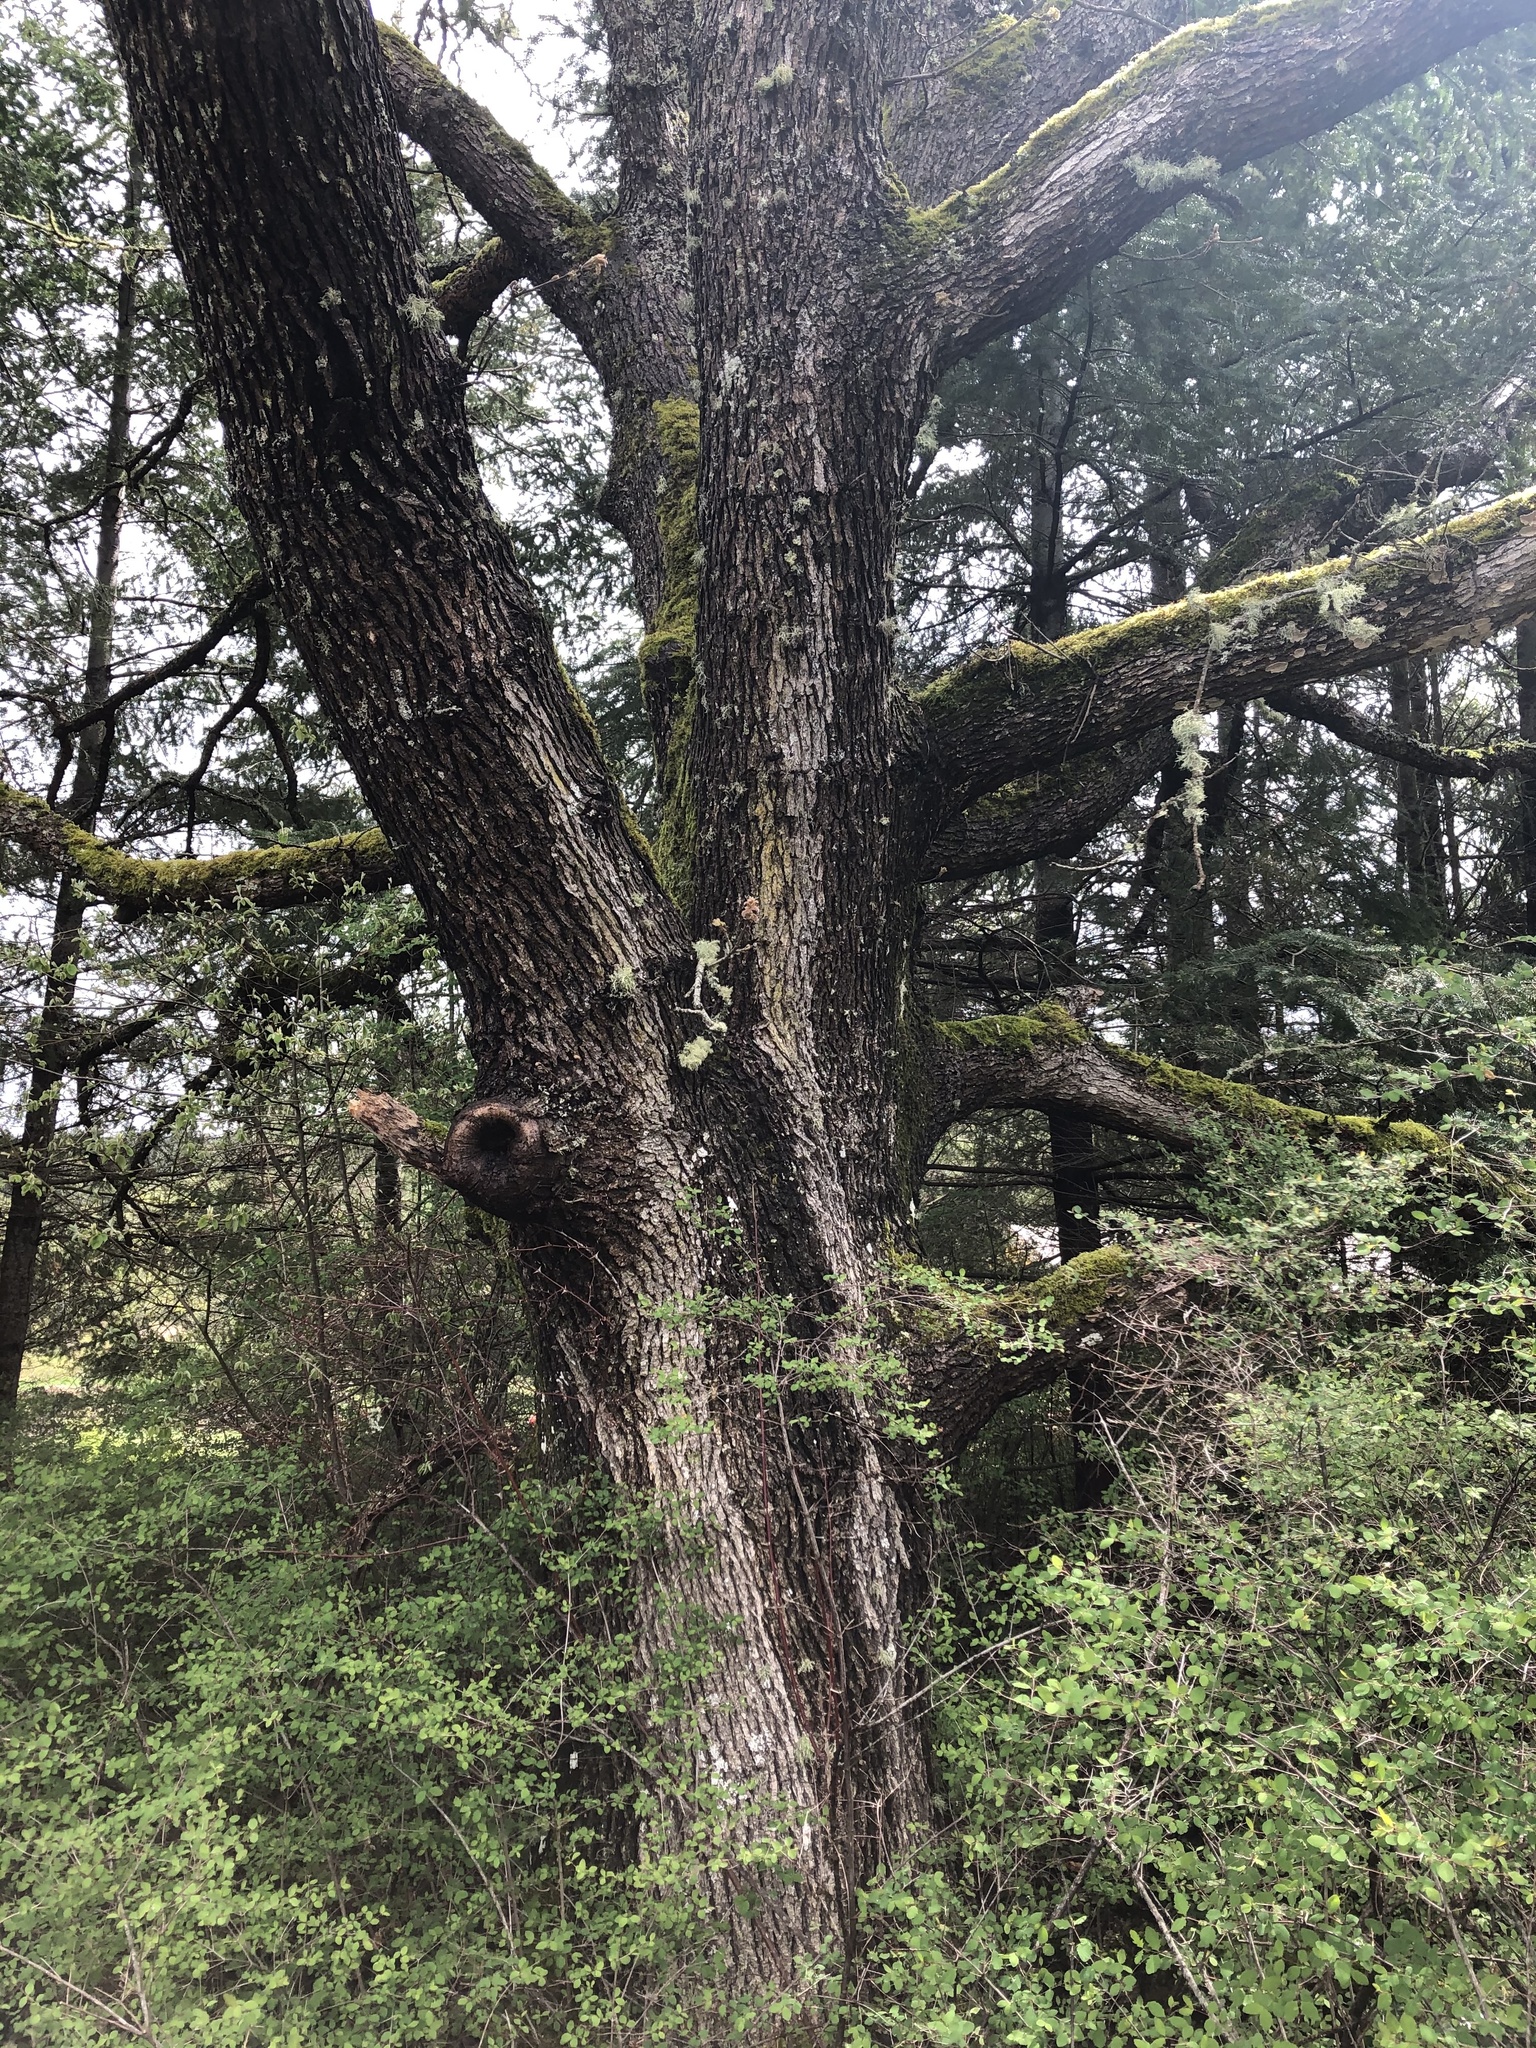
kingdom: Plantae
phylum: Tracheophyta
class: Magnoliopsida
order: Fagales
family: Fagaceae
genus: Quercus
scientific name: Quercus garryana
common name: Garry oak
